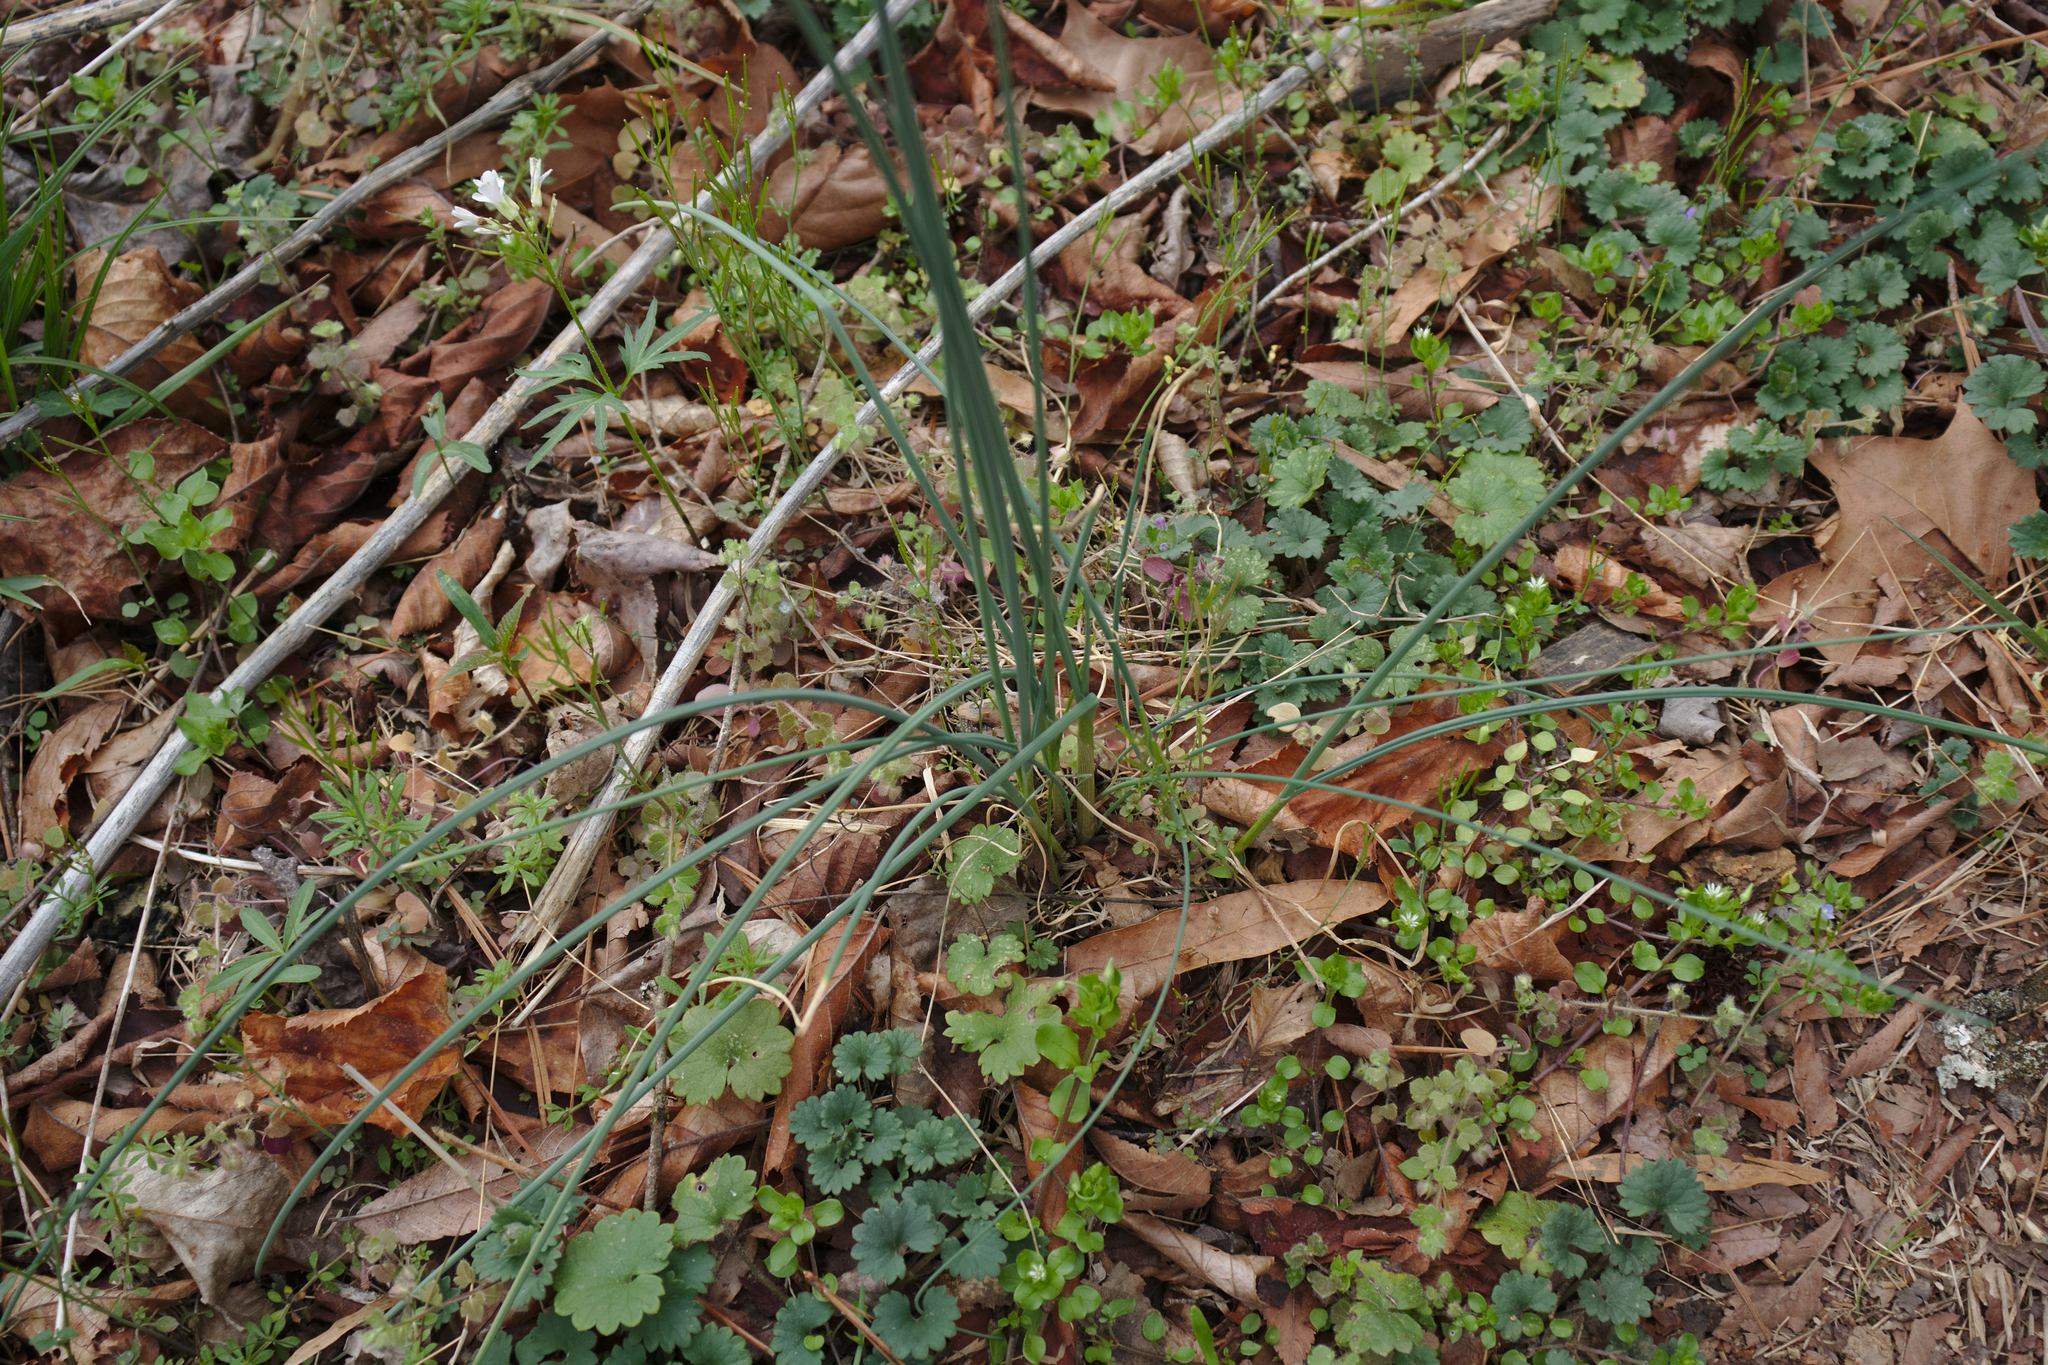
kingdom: Plantae
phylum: Tracheophyta
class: Liliopsida
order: Asparagales
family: Amaryllidaceae
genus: Allium
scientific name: Allium vineale
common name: Crow garlic
